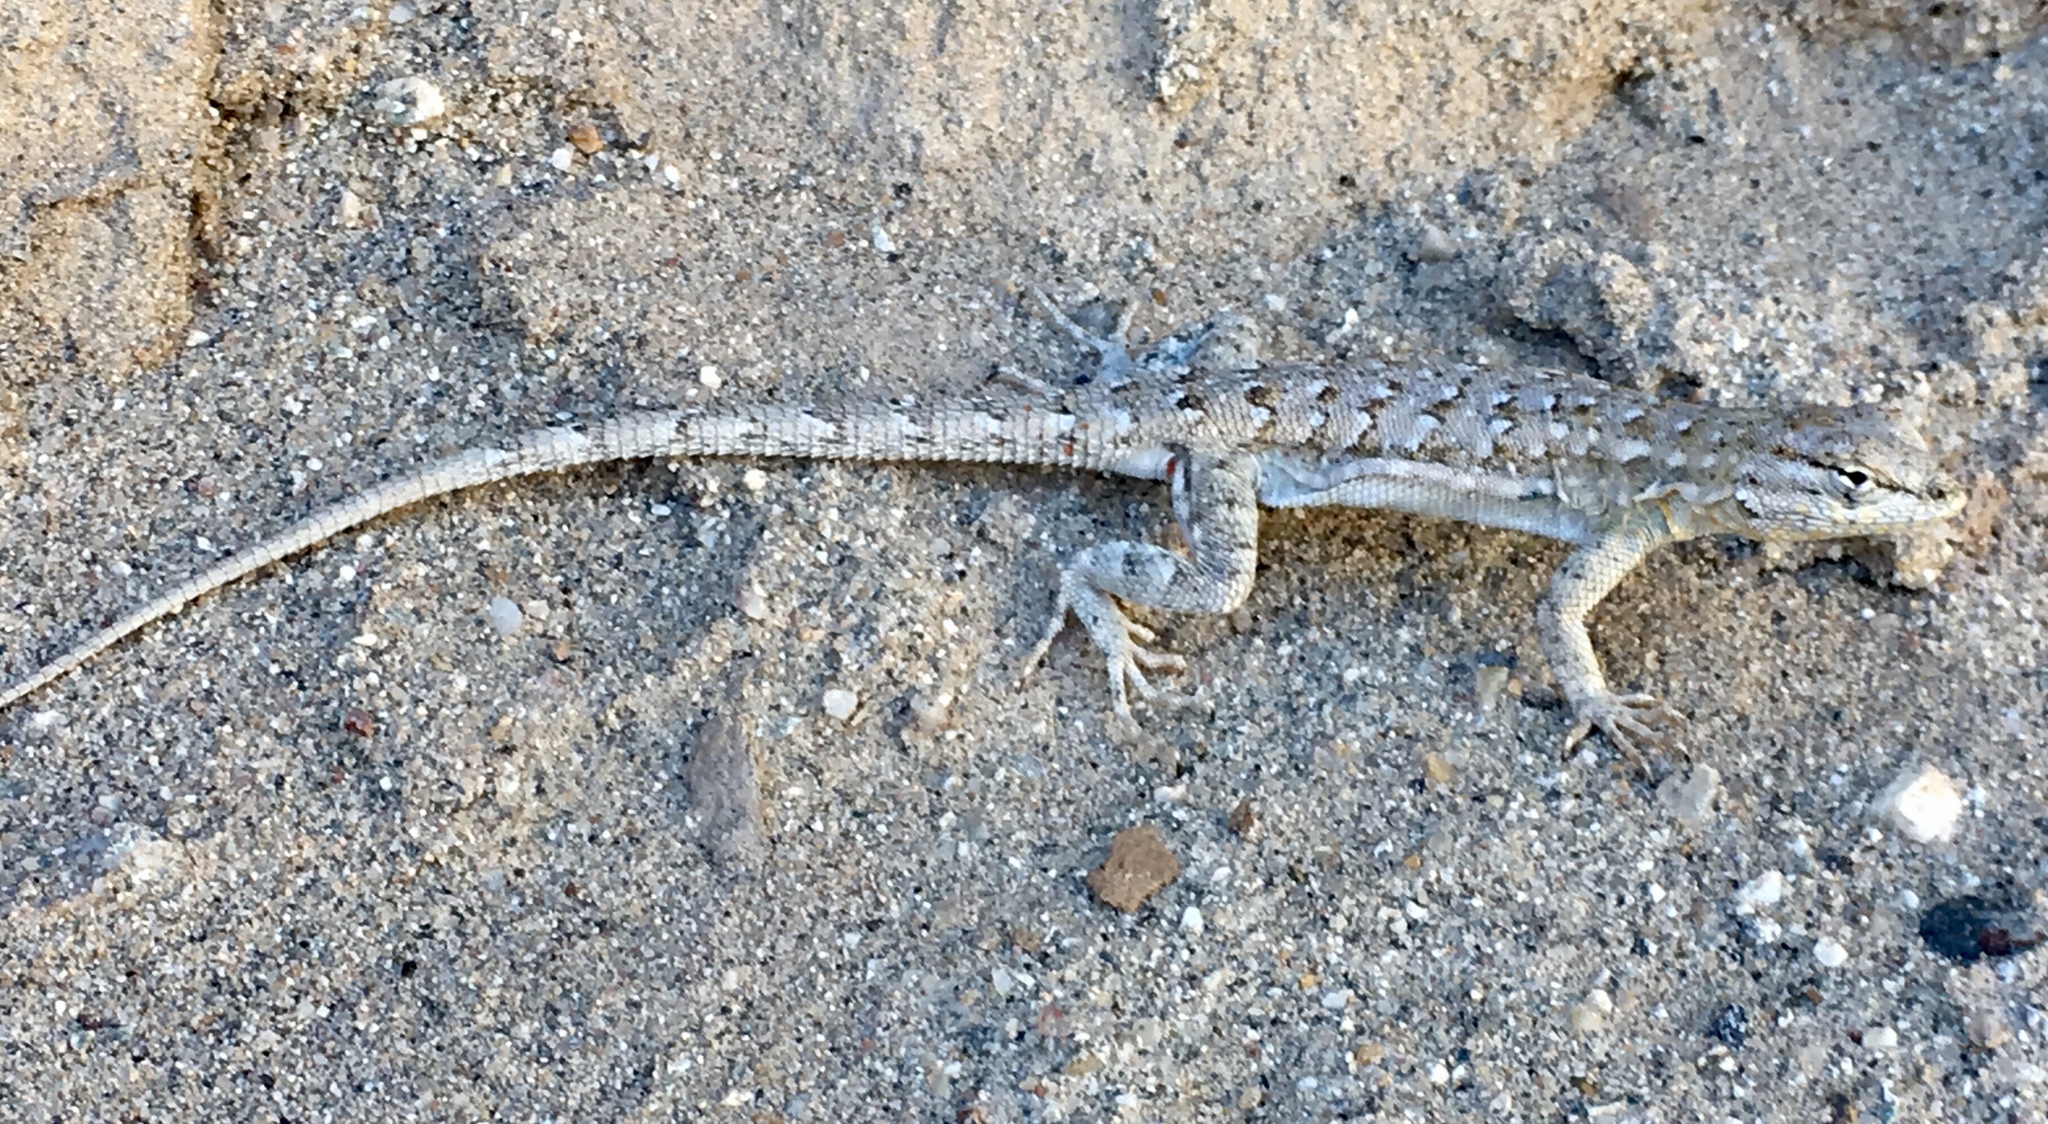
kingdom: Animalia
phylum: Chordata
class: Squamata
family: Phrynosomatidae
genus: Uta
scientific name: Uta stansburiana
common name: Side-blotched lizard
